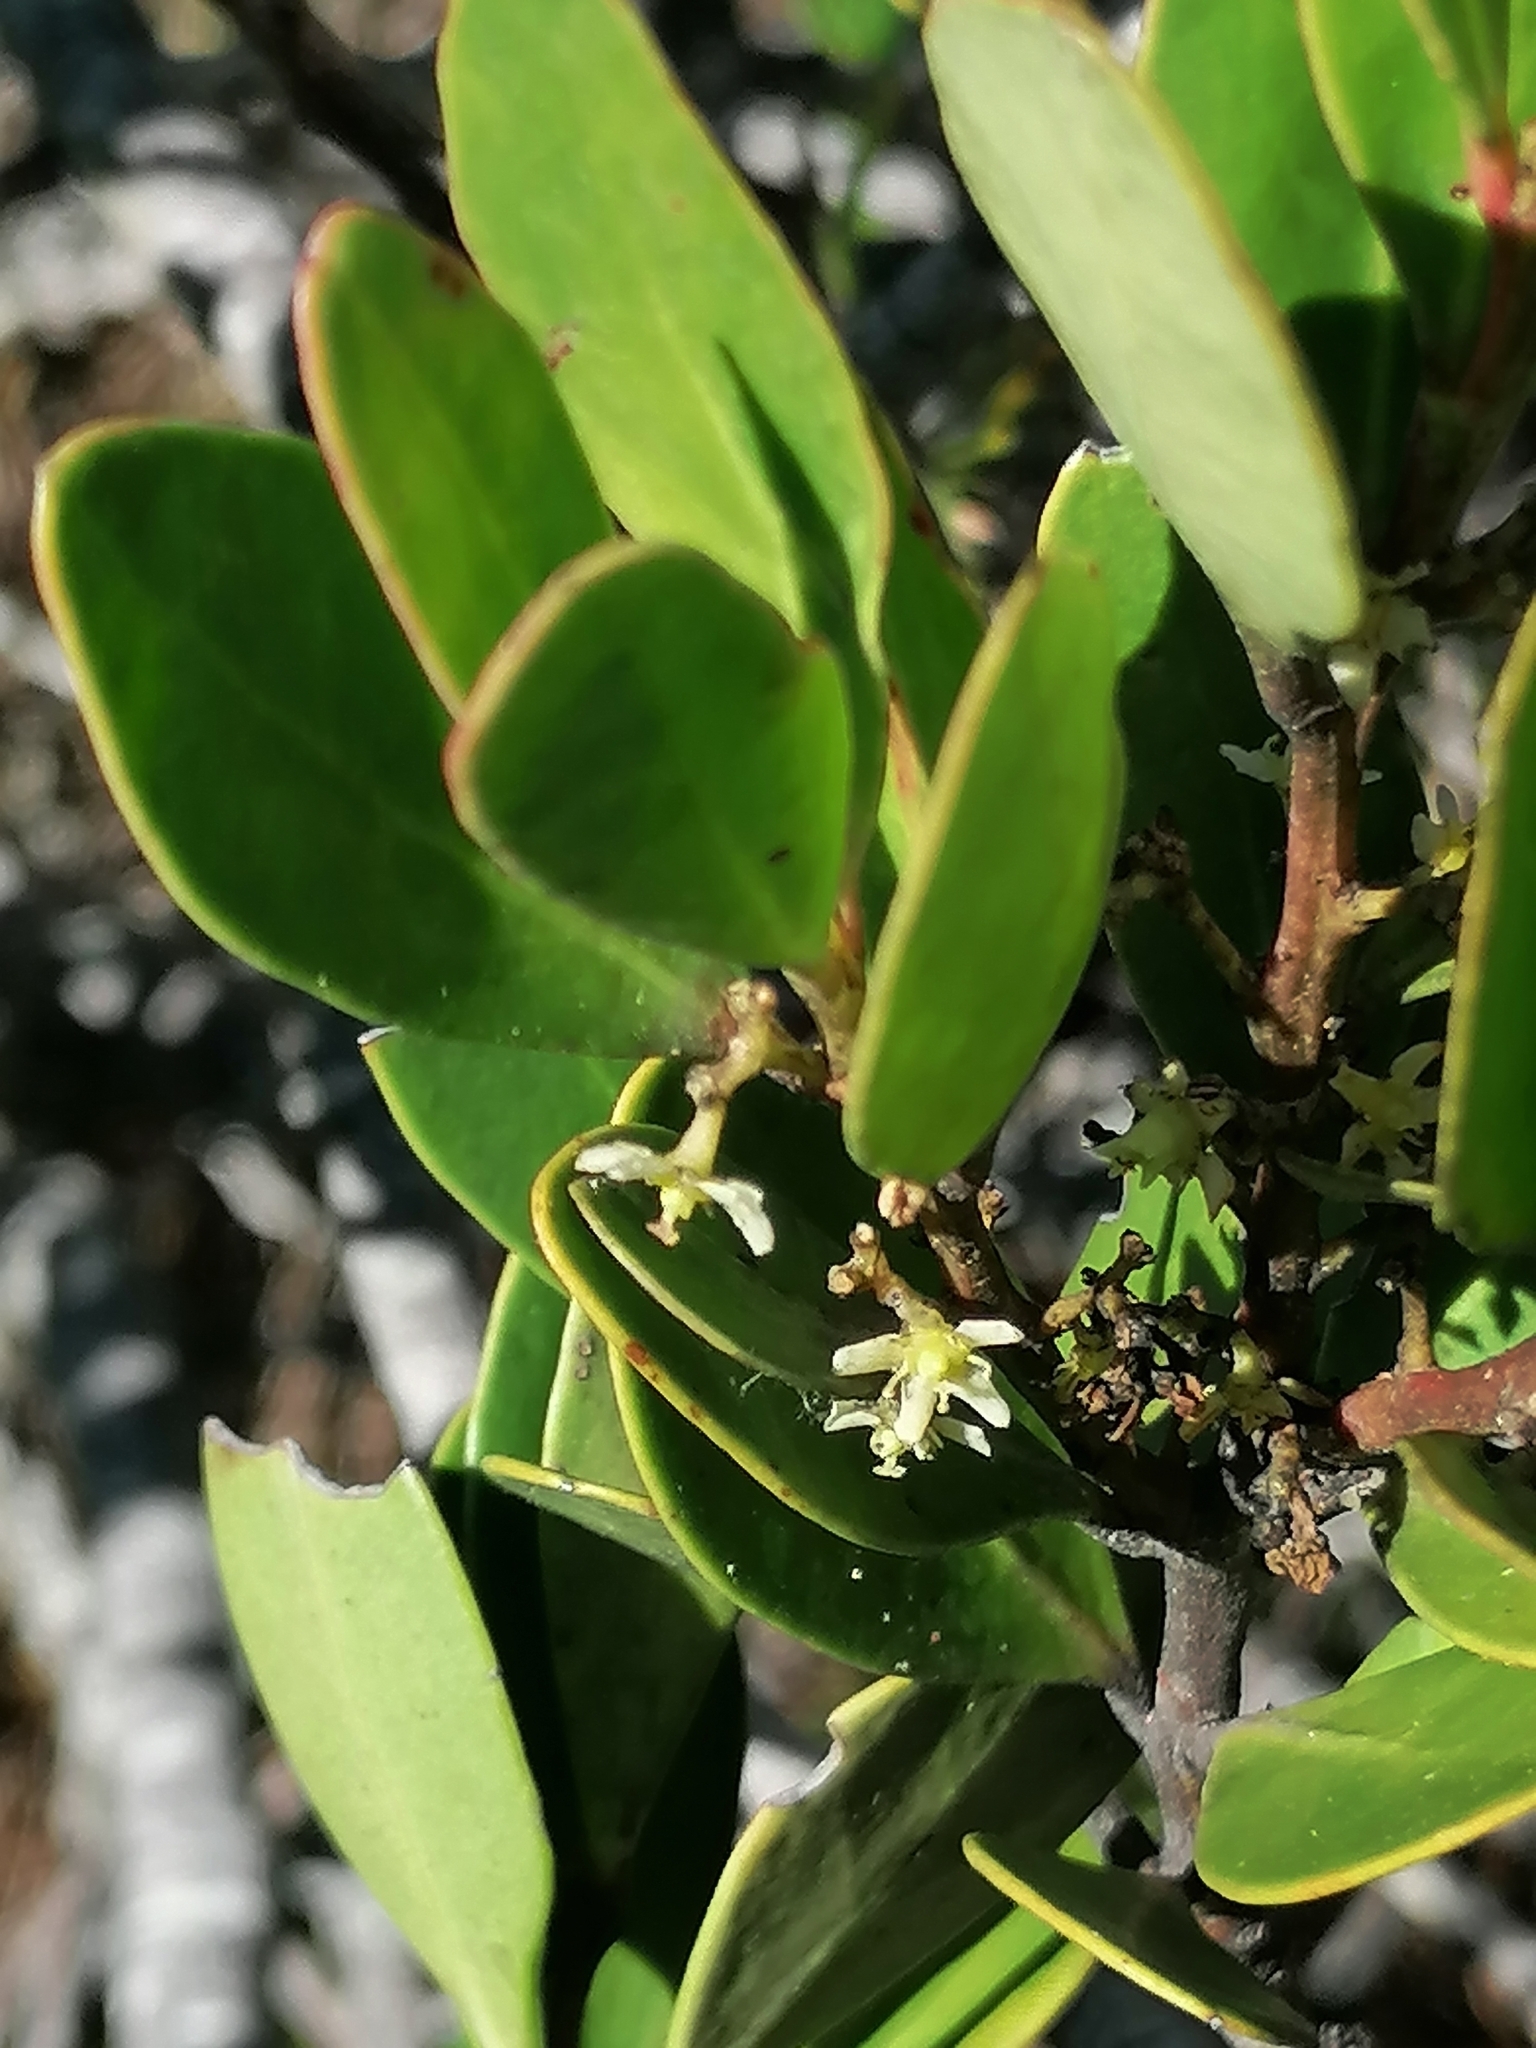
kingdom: Plantae
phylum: Tracheophyta
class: Magnoliopsida
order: Celastrales
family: Celastraceae
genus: Gymnosporia
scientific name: Gymnosporia laurina
